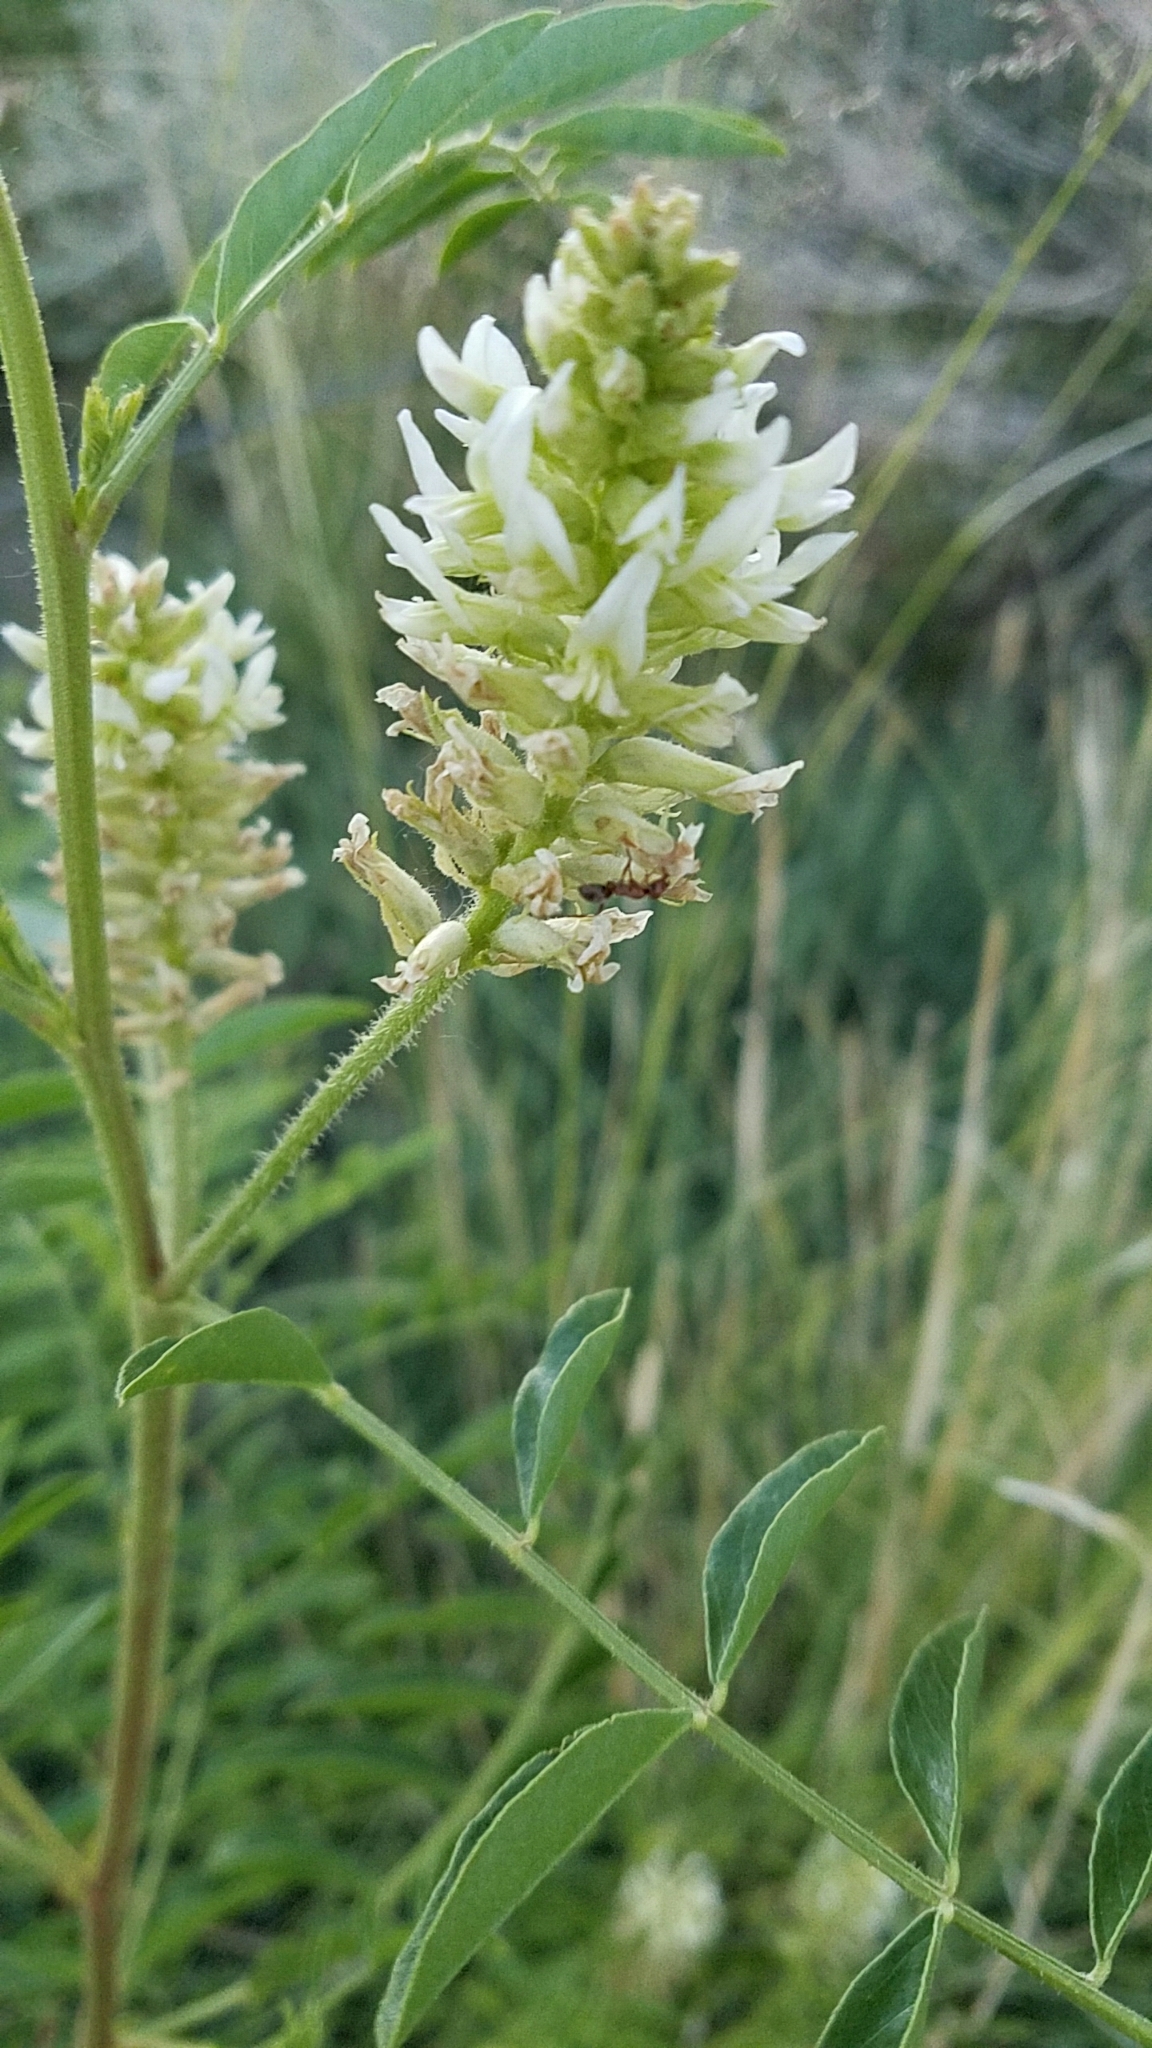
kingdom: Plantae
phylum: Tracheophyta
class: Magnoliopsida
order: Fabales
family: Fabaceae
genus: Glycyrrhiza
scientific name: Glycyrrhiza lepidota
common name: American liquorice
